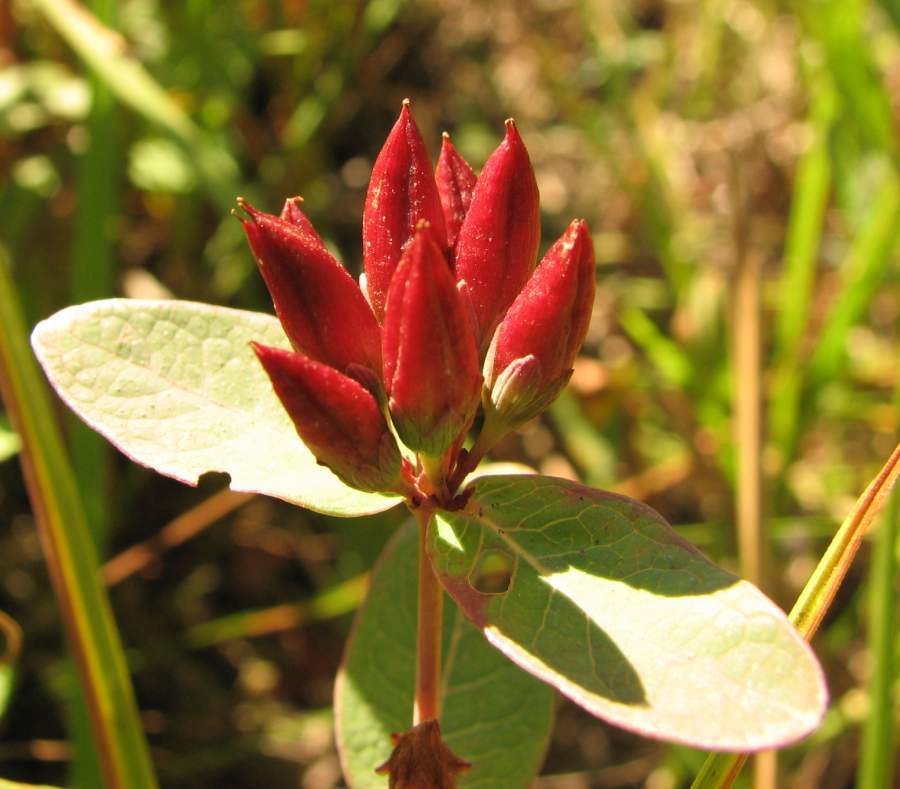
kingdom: Plantae
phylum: Tracheophyta
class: Magnoliopsida
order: Malpighiales
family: Hypericaceae
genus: Triadenum
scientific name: Triadenum fraseri
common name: Fraser's marsh st. johnswort
